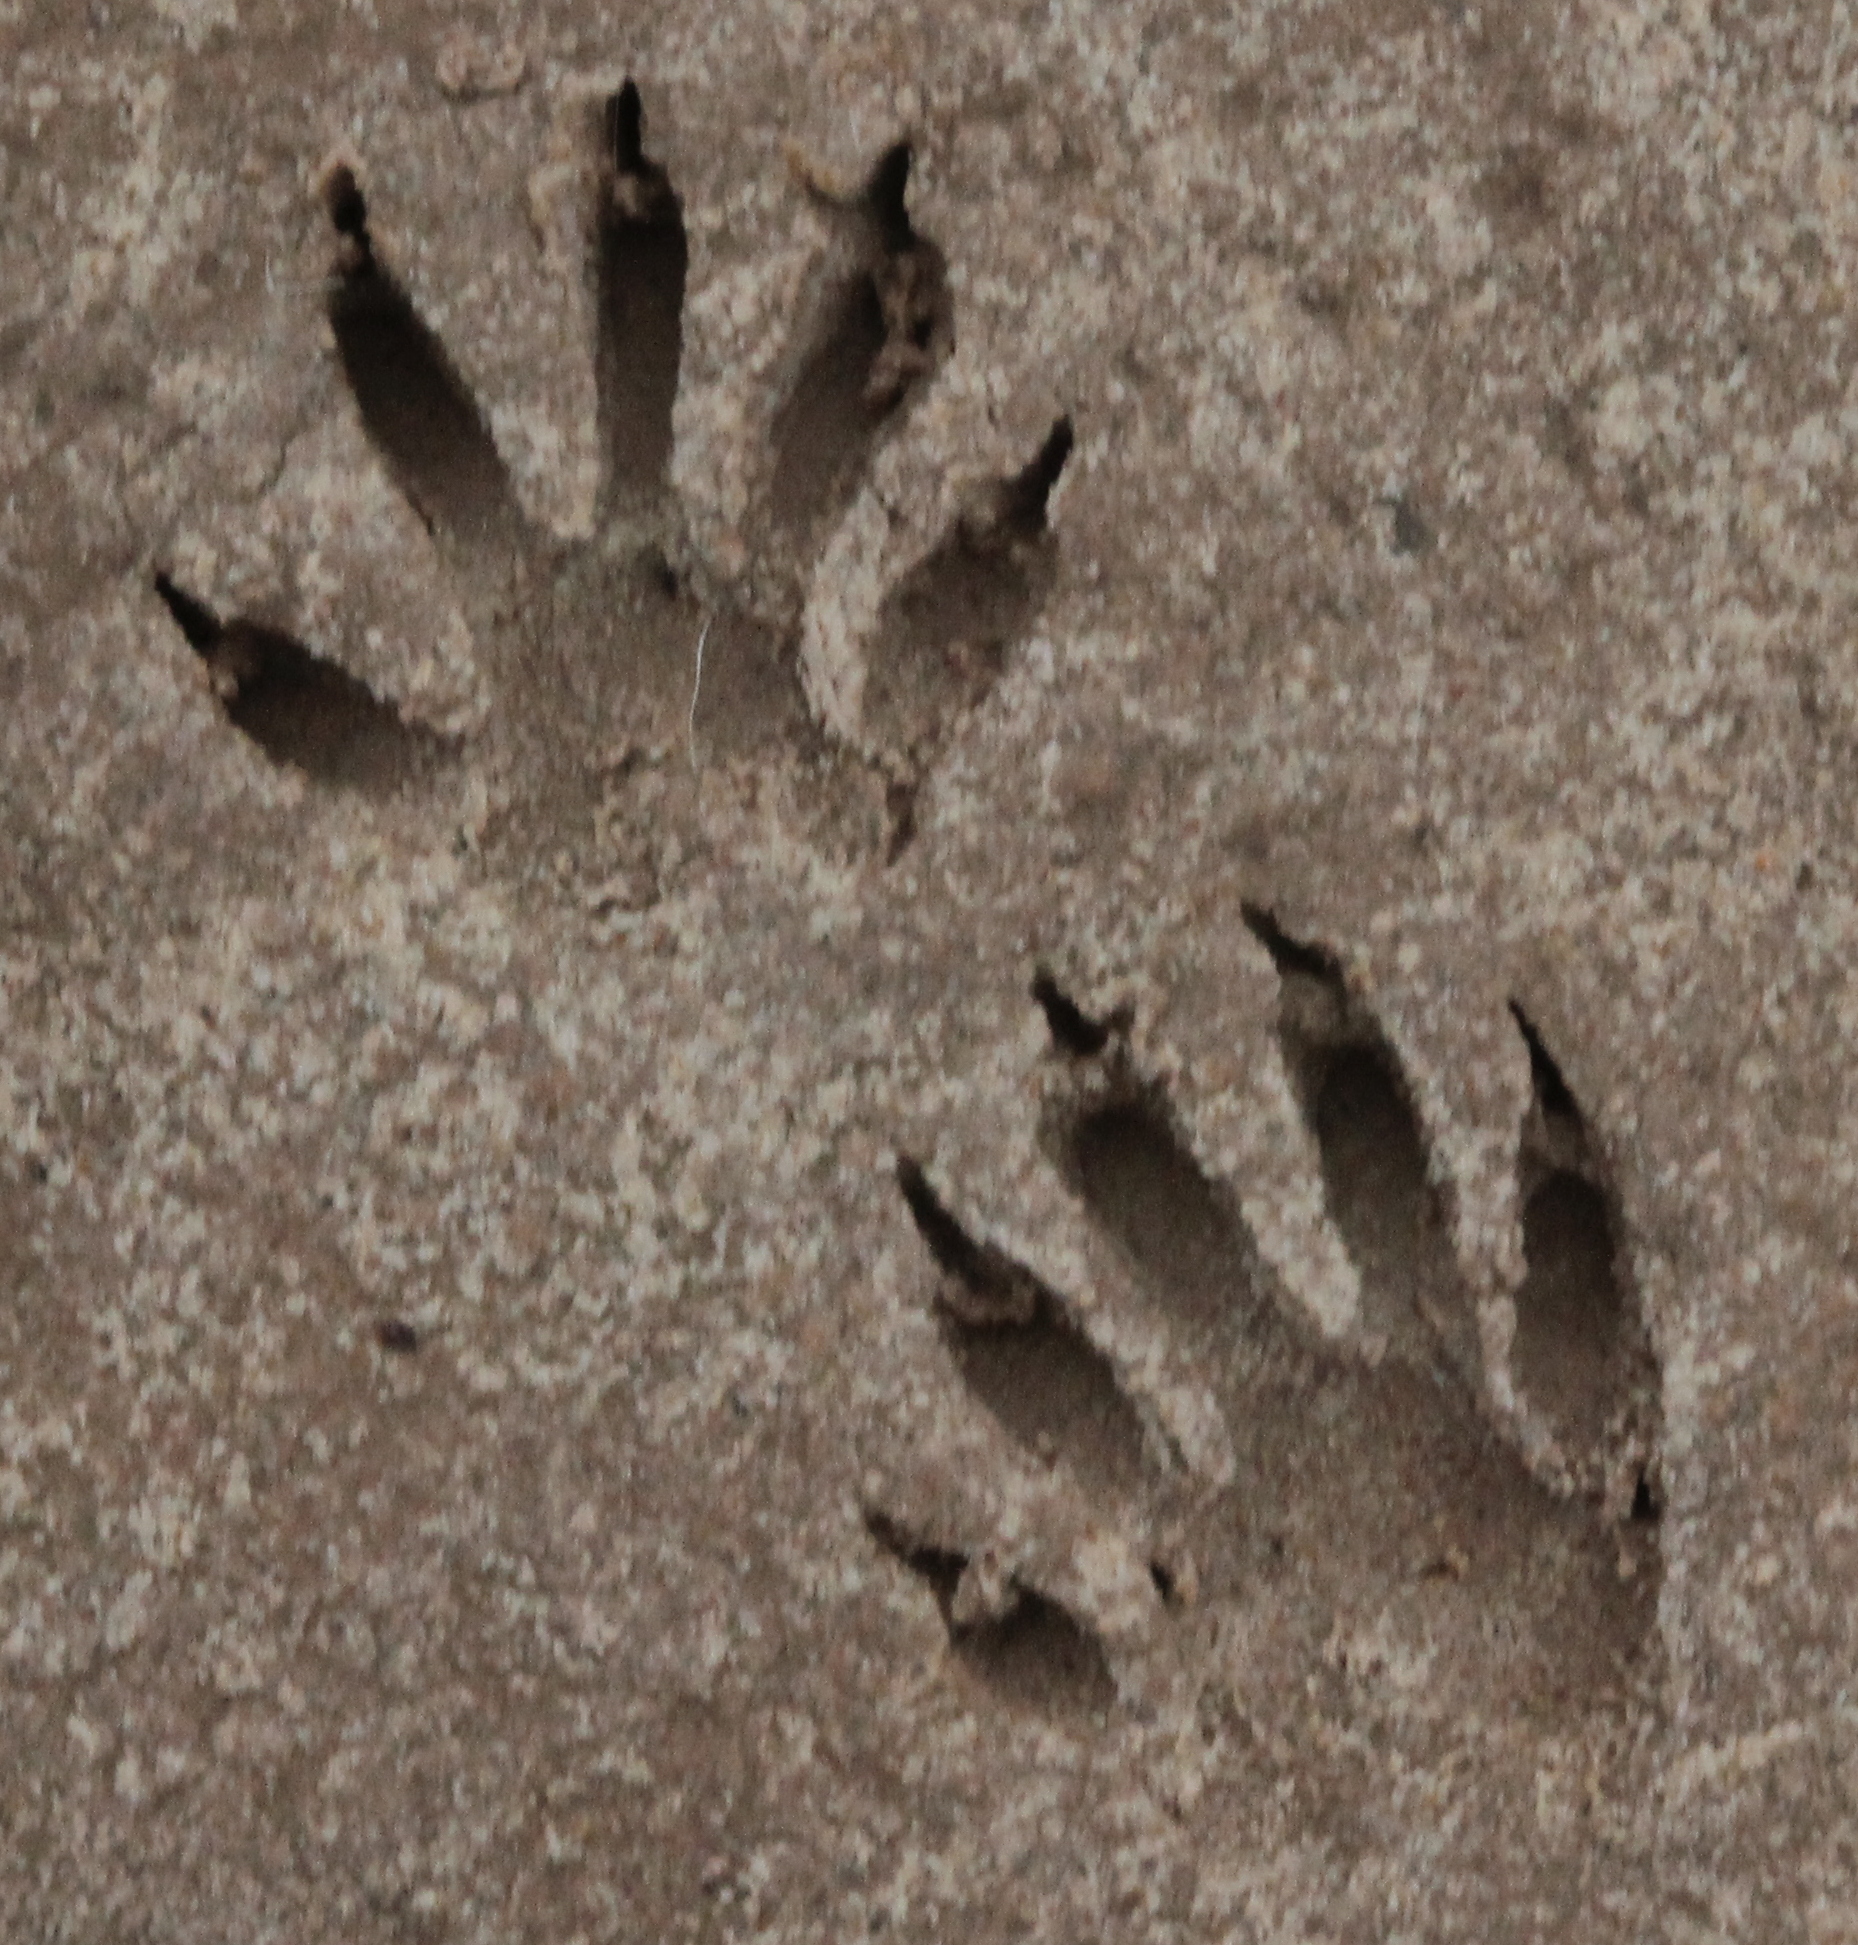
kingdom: Animalia
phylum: Chordata
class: Mammalia
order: Carnivora
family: Procyonidae
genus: Procyon
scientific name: Procyon lotor
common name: Raccoon
